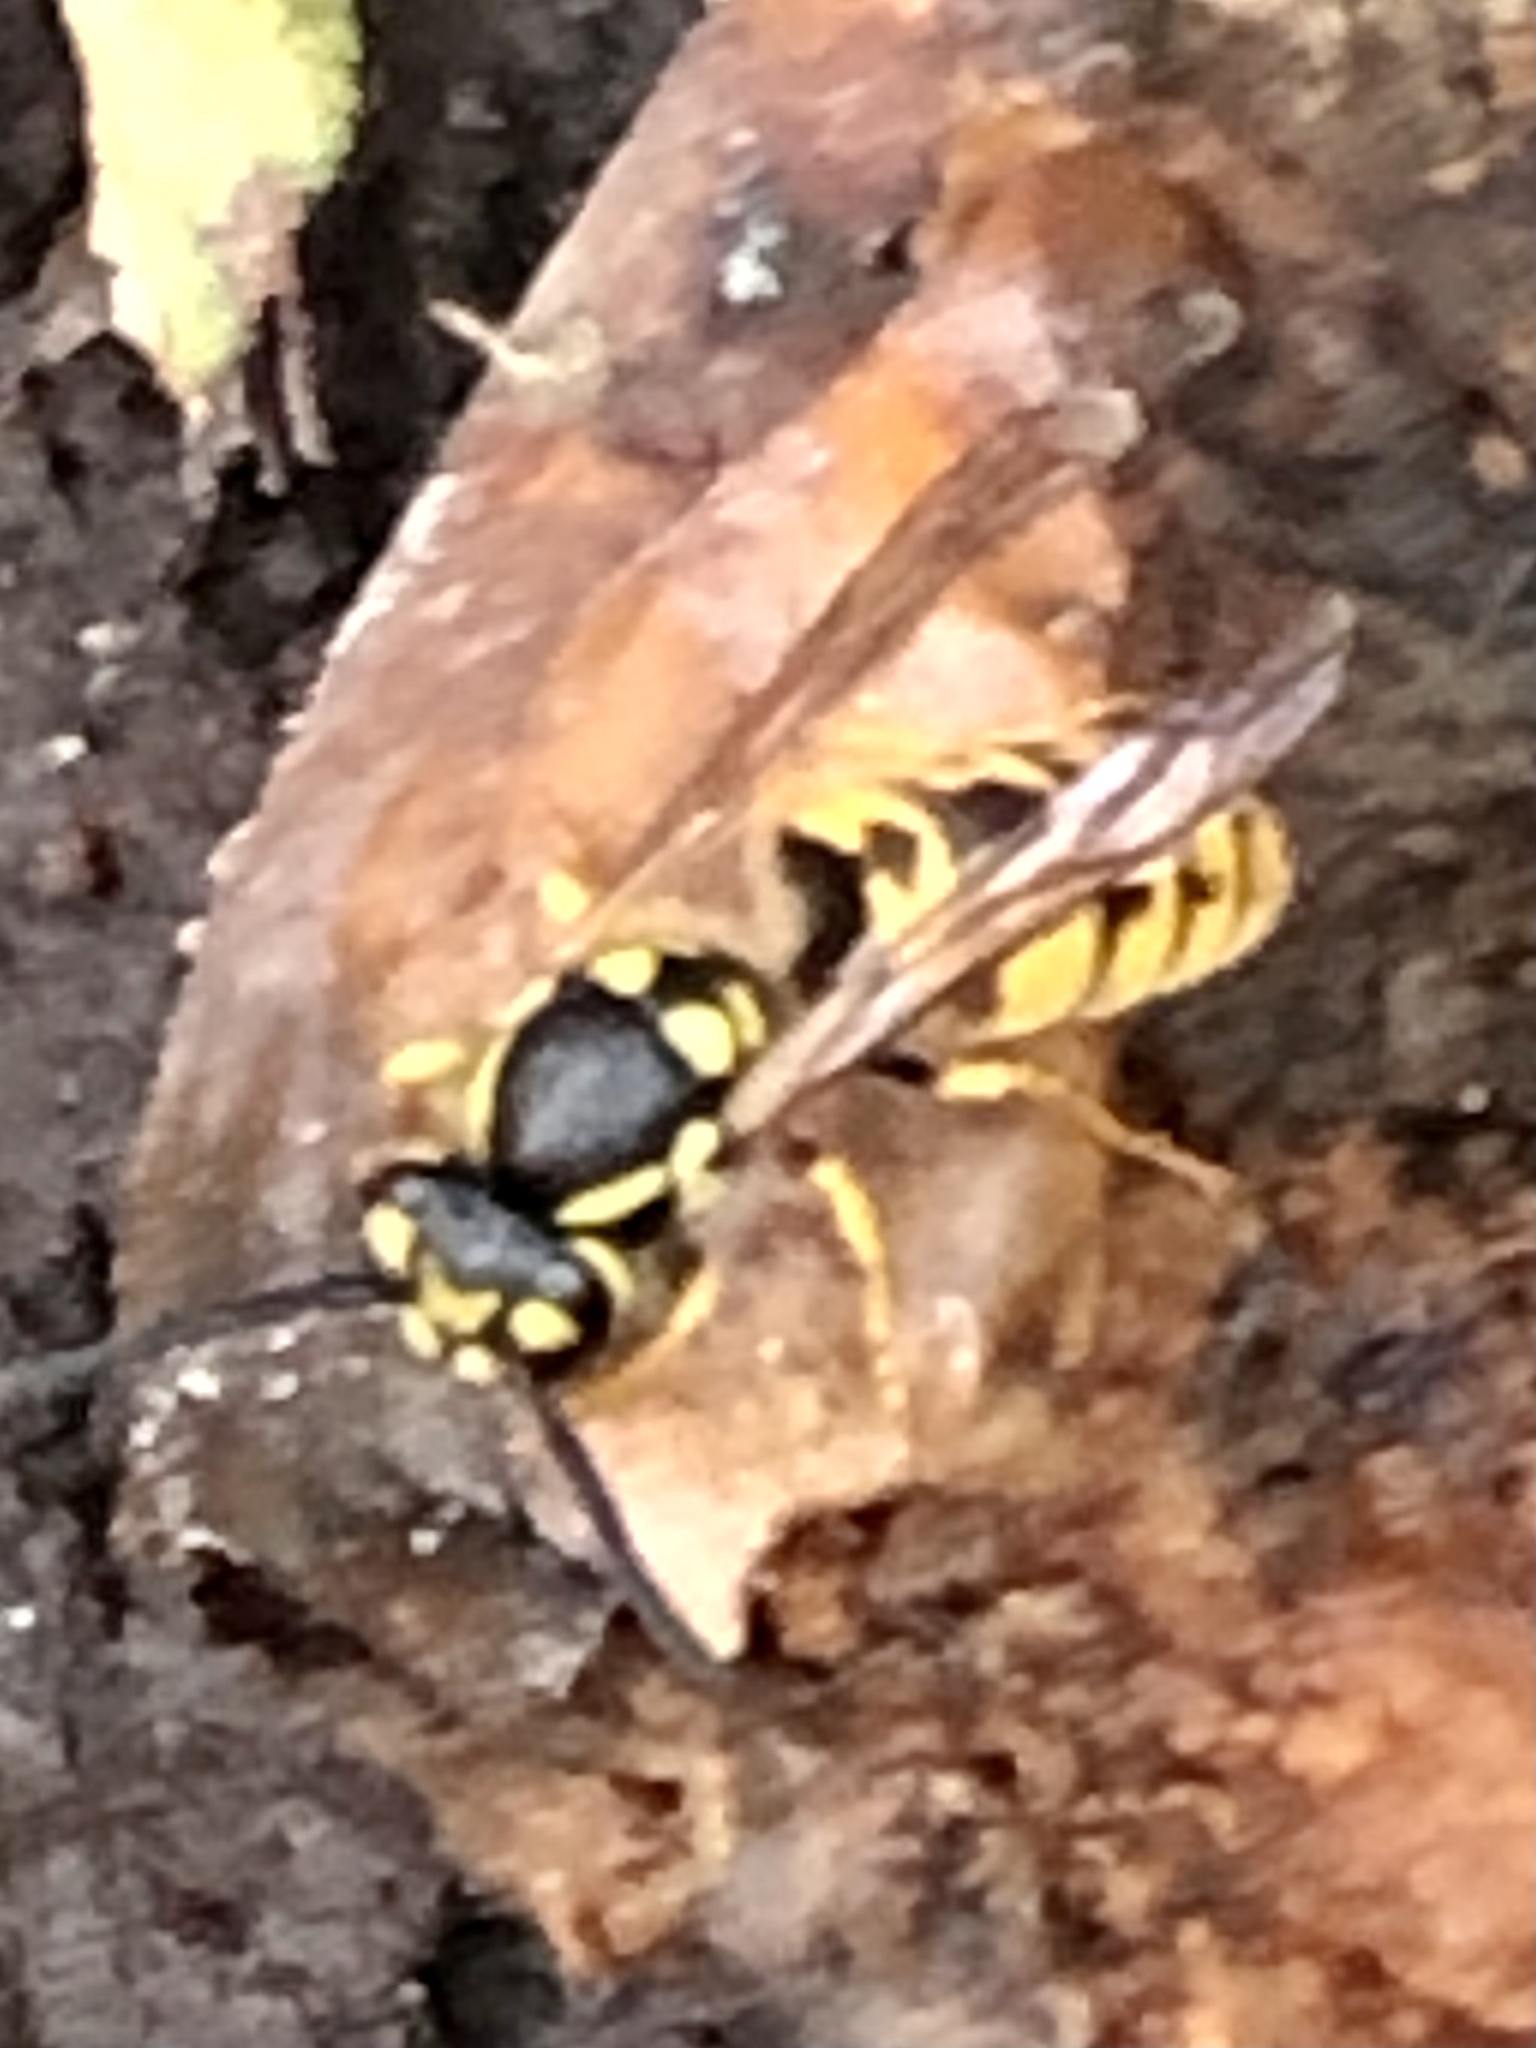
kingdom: Animalia
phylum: Arthropoda
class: Insecta
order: Hymenoptera
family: Vespidae
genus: Vespula
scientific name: Vespula germanica
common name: German wasp
